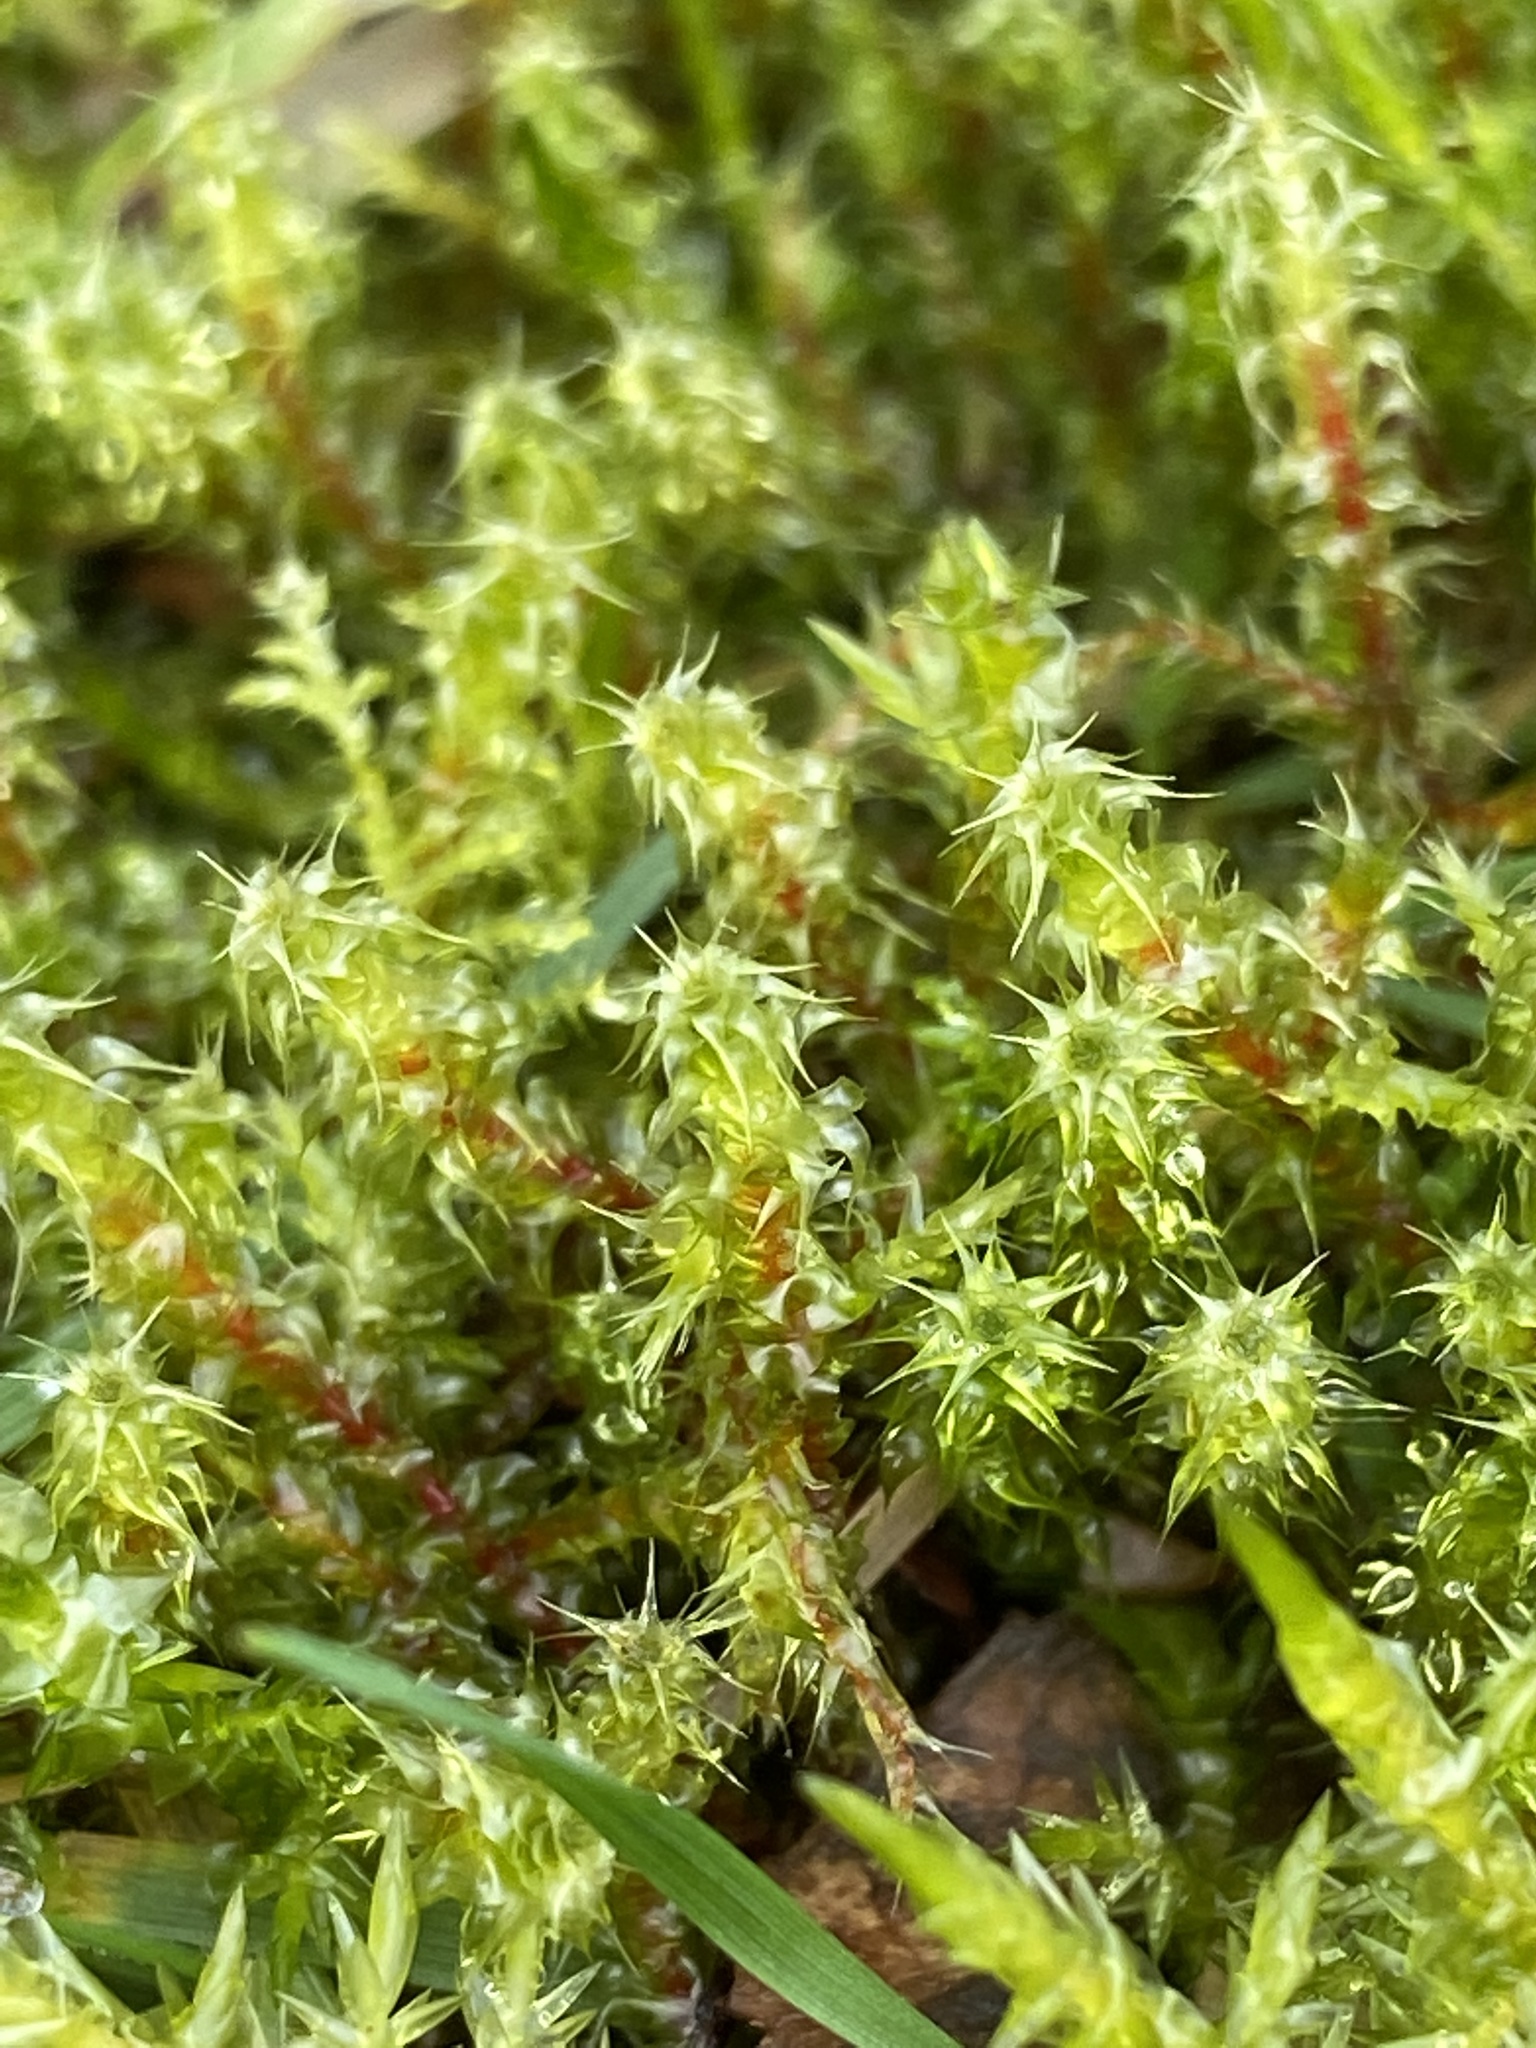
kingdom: Plantae
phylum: Bryophyta
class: Bryopsida
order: Hypnales
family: Hylocomiaceae
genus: Rhytidiadelphus
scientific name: Rhytidiadelphus squarrosus
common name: Springy turf-moss
